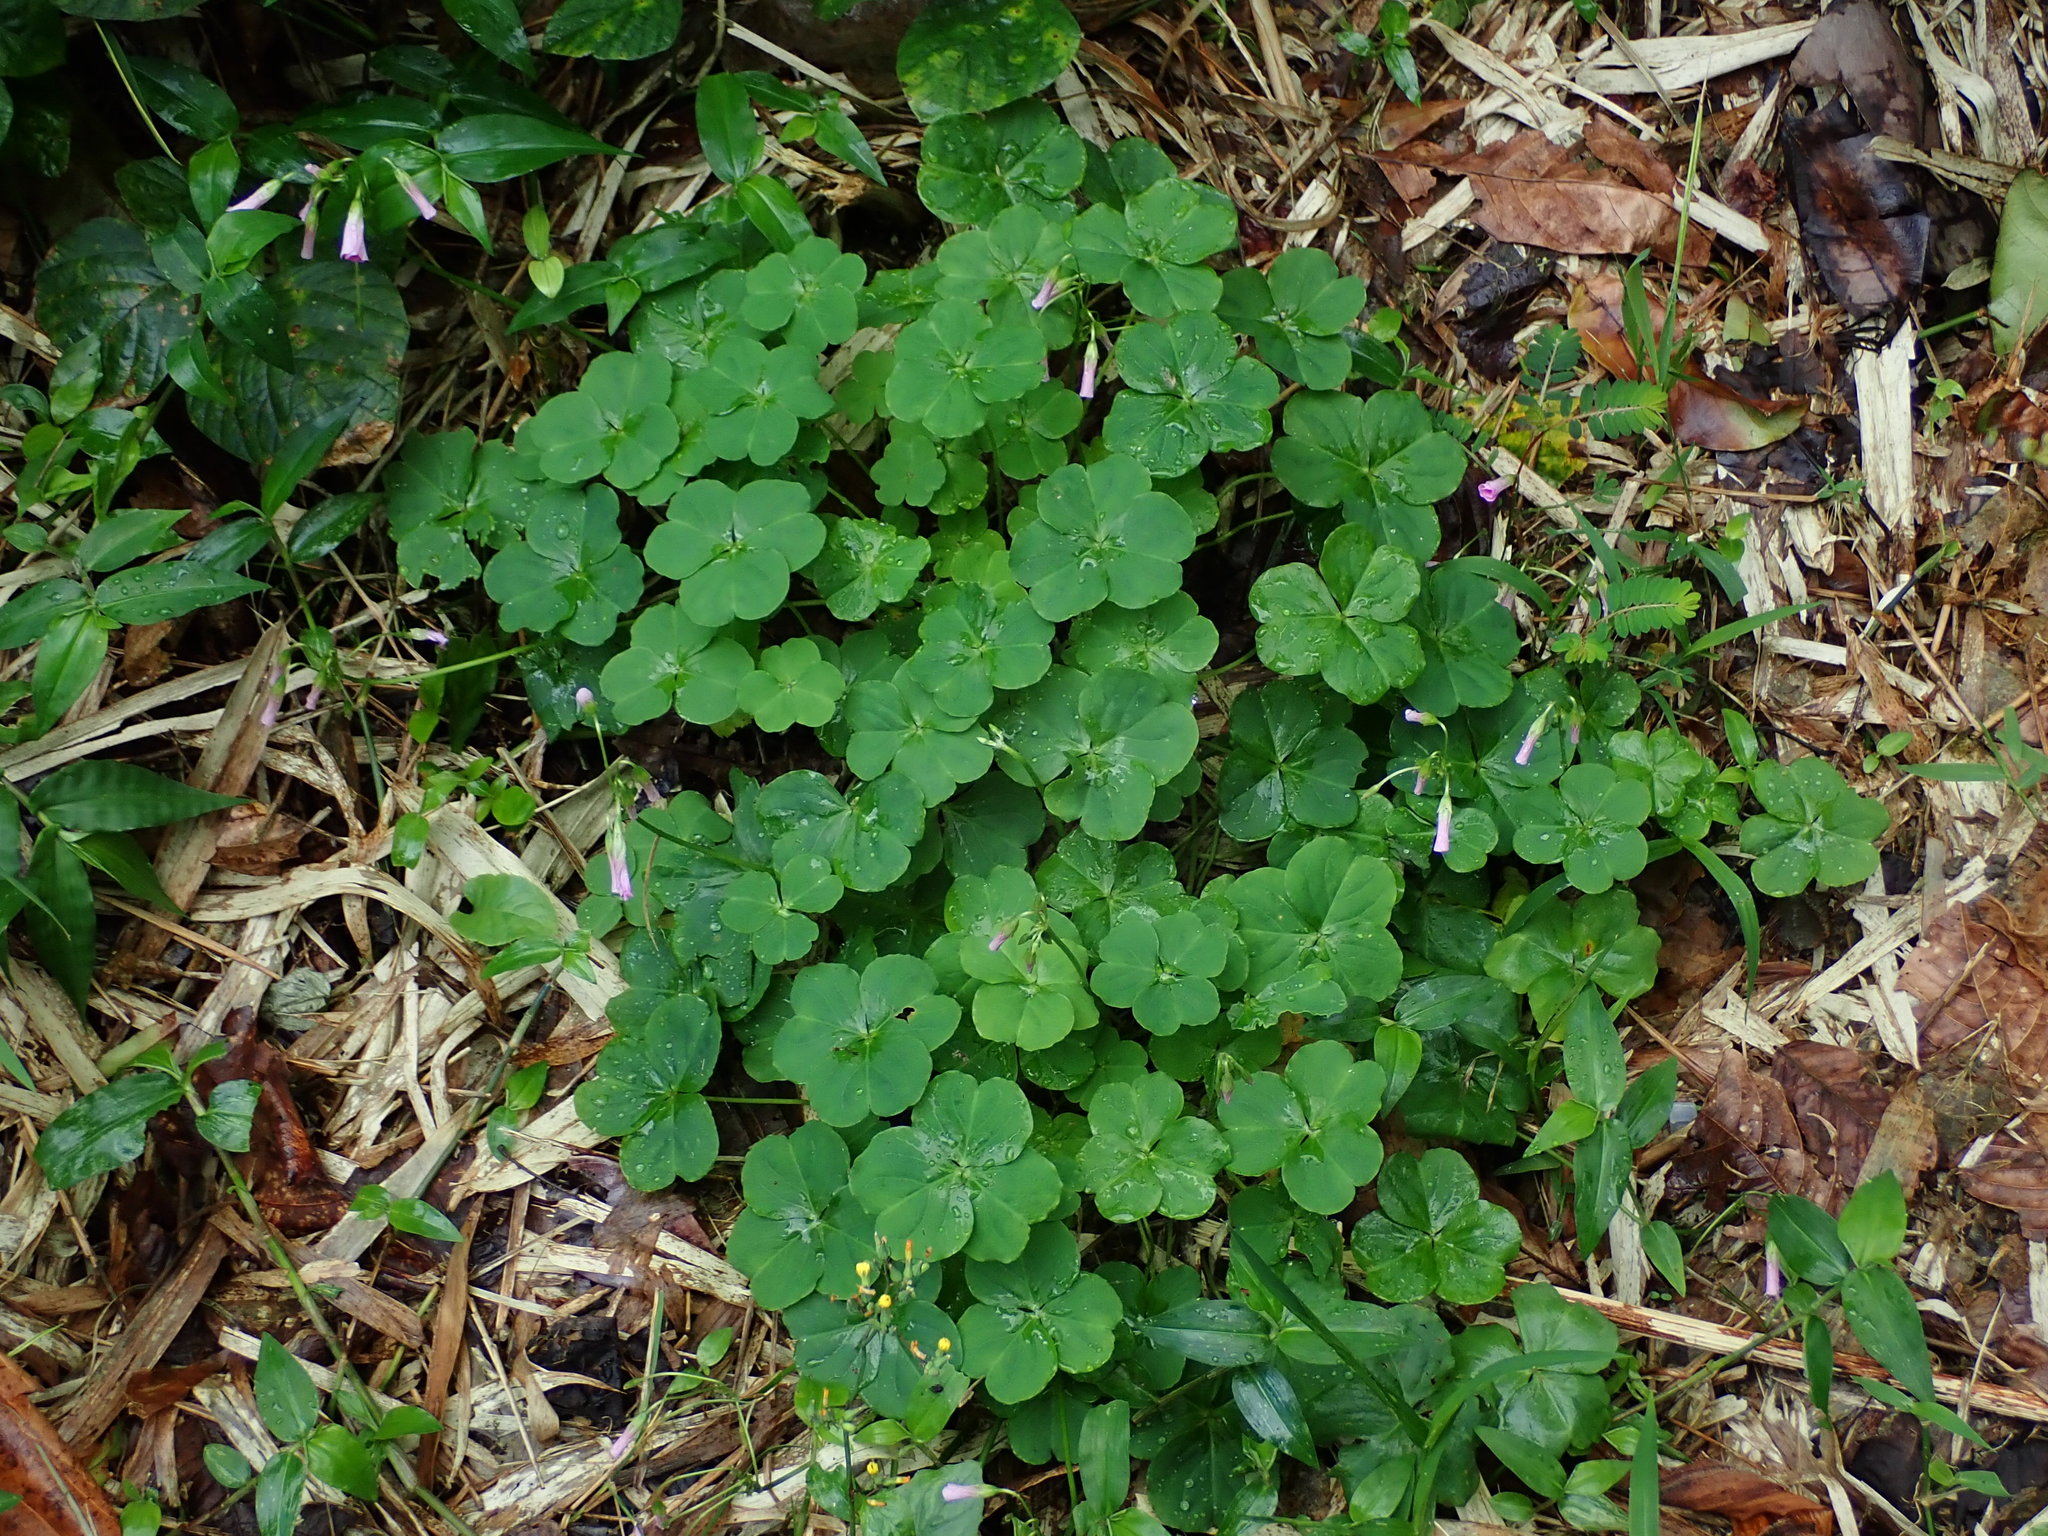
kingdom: Plantae
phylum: Tracheophyta
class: Magnoliopsida
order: Oxalidales
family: Oxalidaceae
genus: Oxalis
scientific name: Oxalis debilis
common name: Large-flowered pink-sorrel
